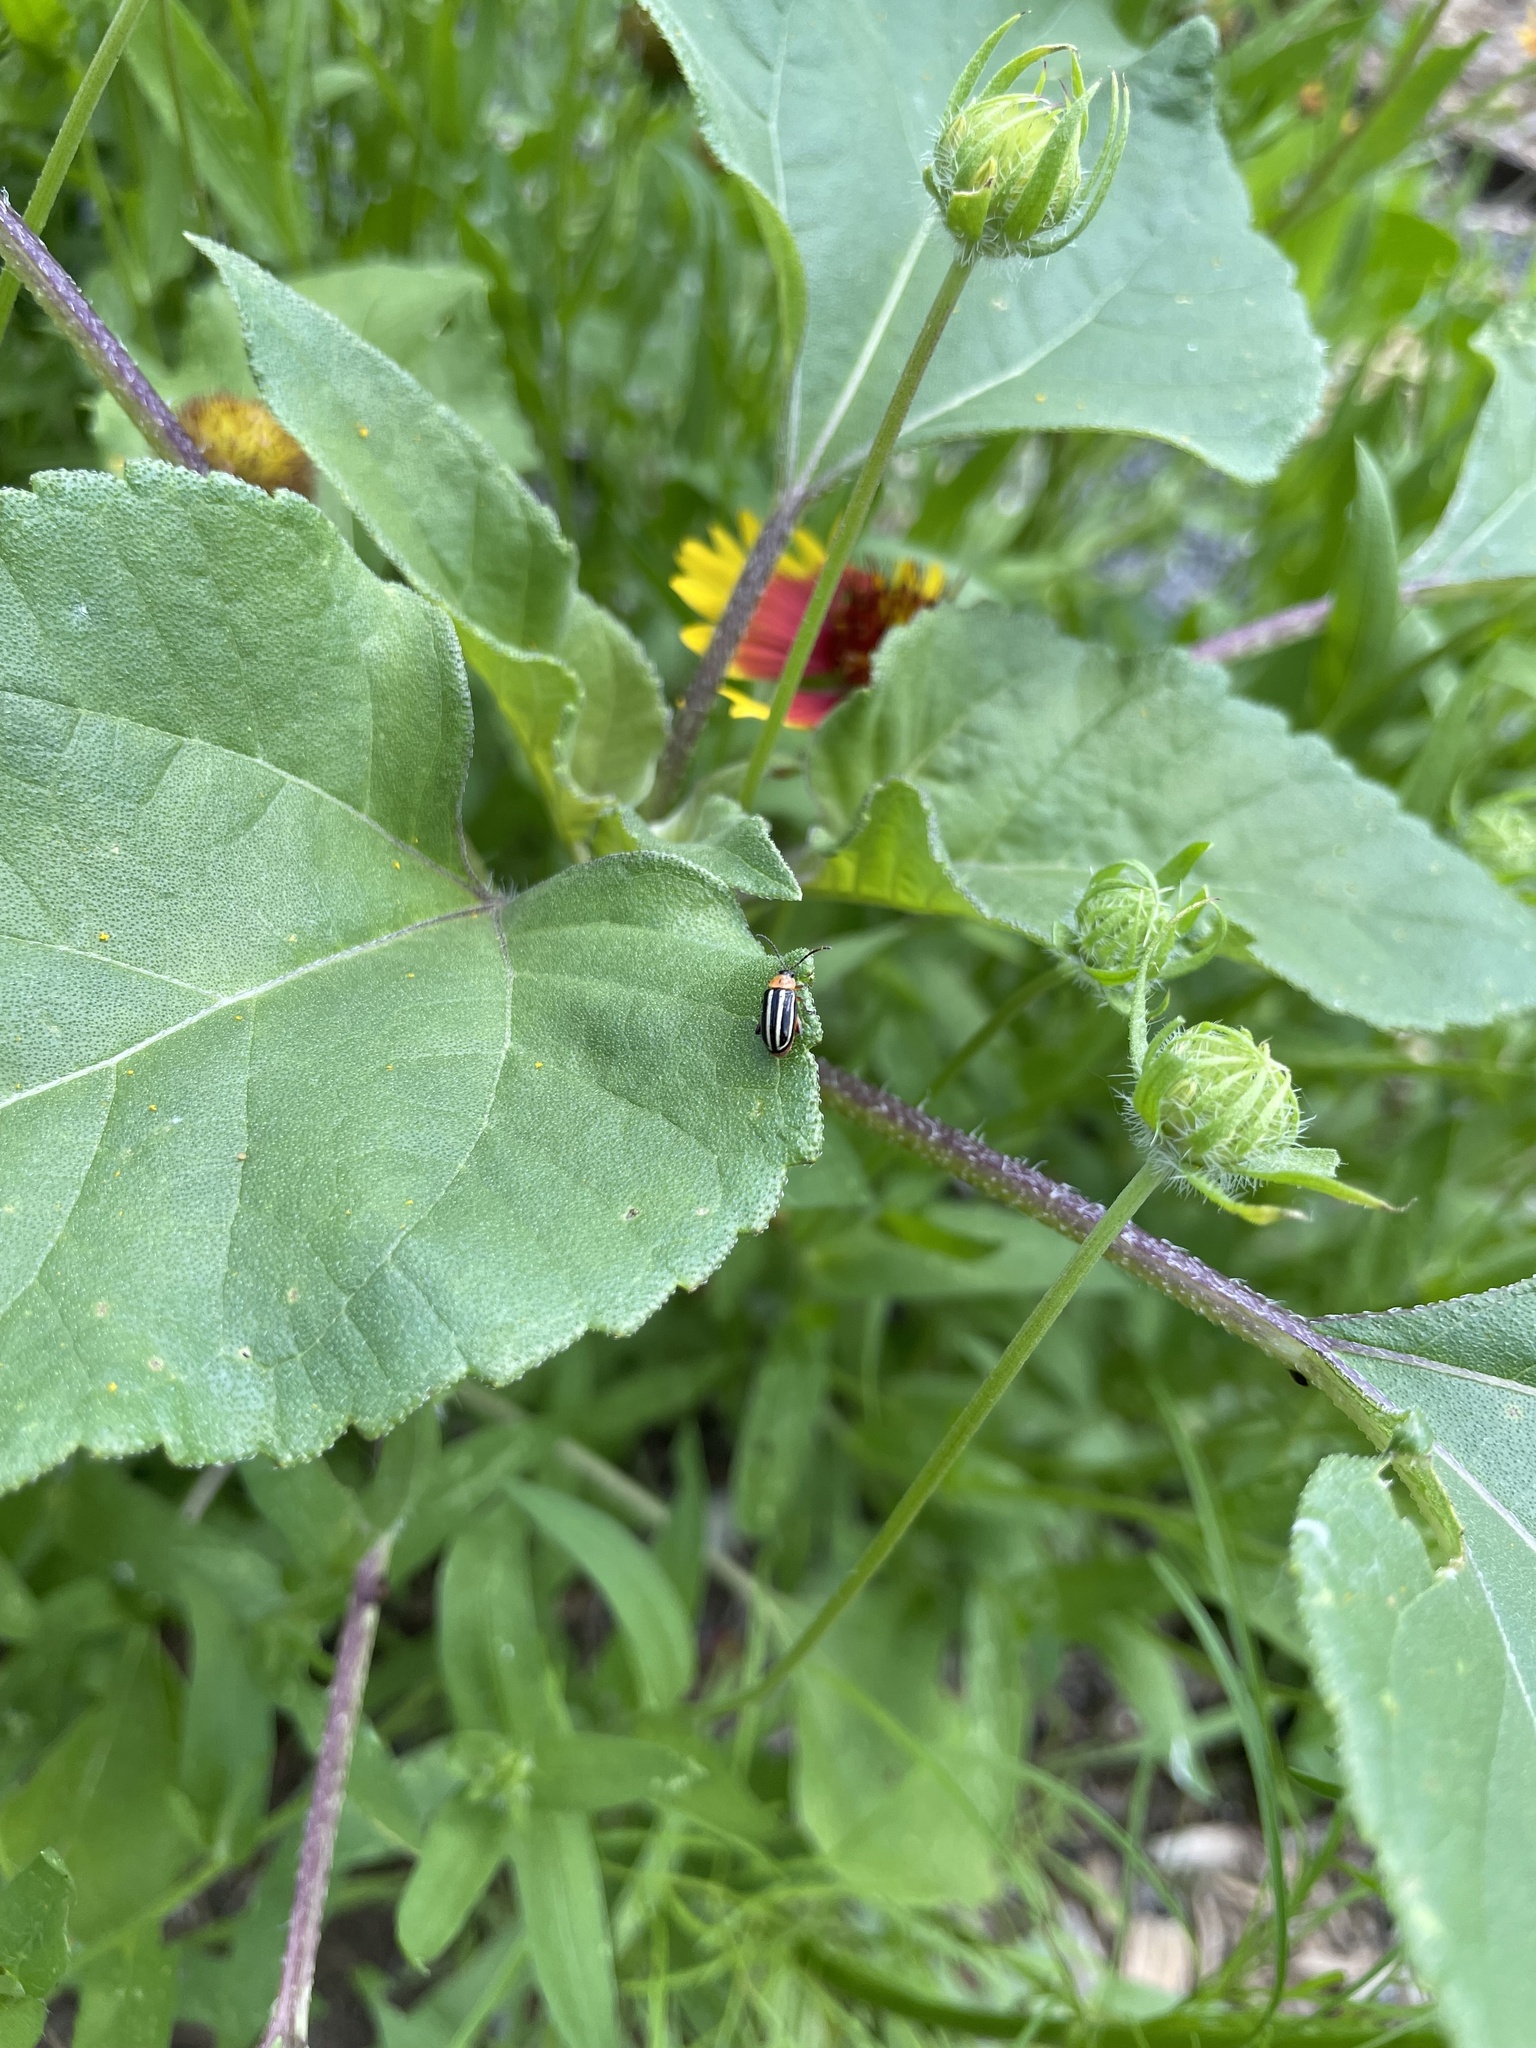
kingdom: Animalia
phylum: Arthropoda
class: Insecta
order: Coleoptera
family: Chrysomelidae
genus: Disonycha
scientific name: Disonycha glabrata
